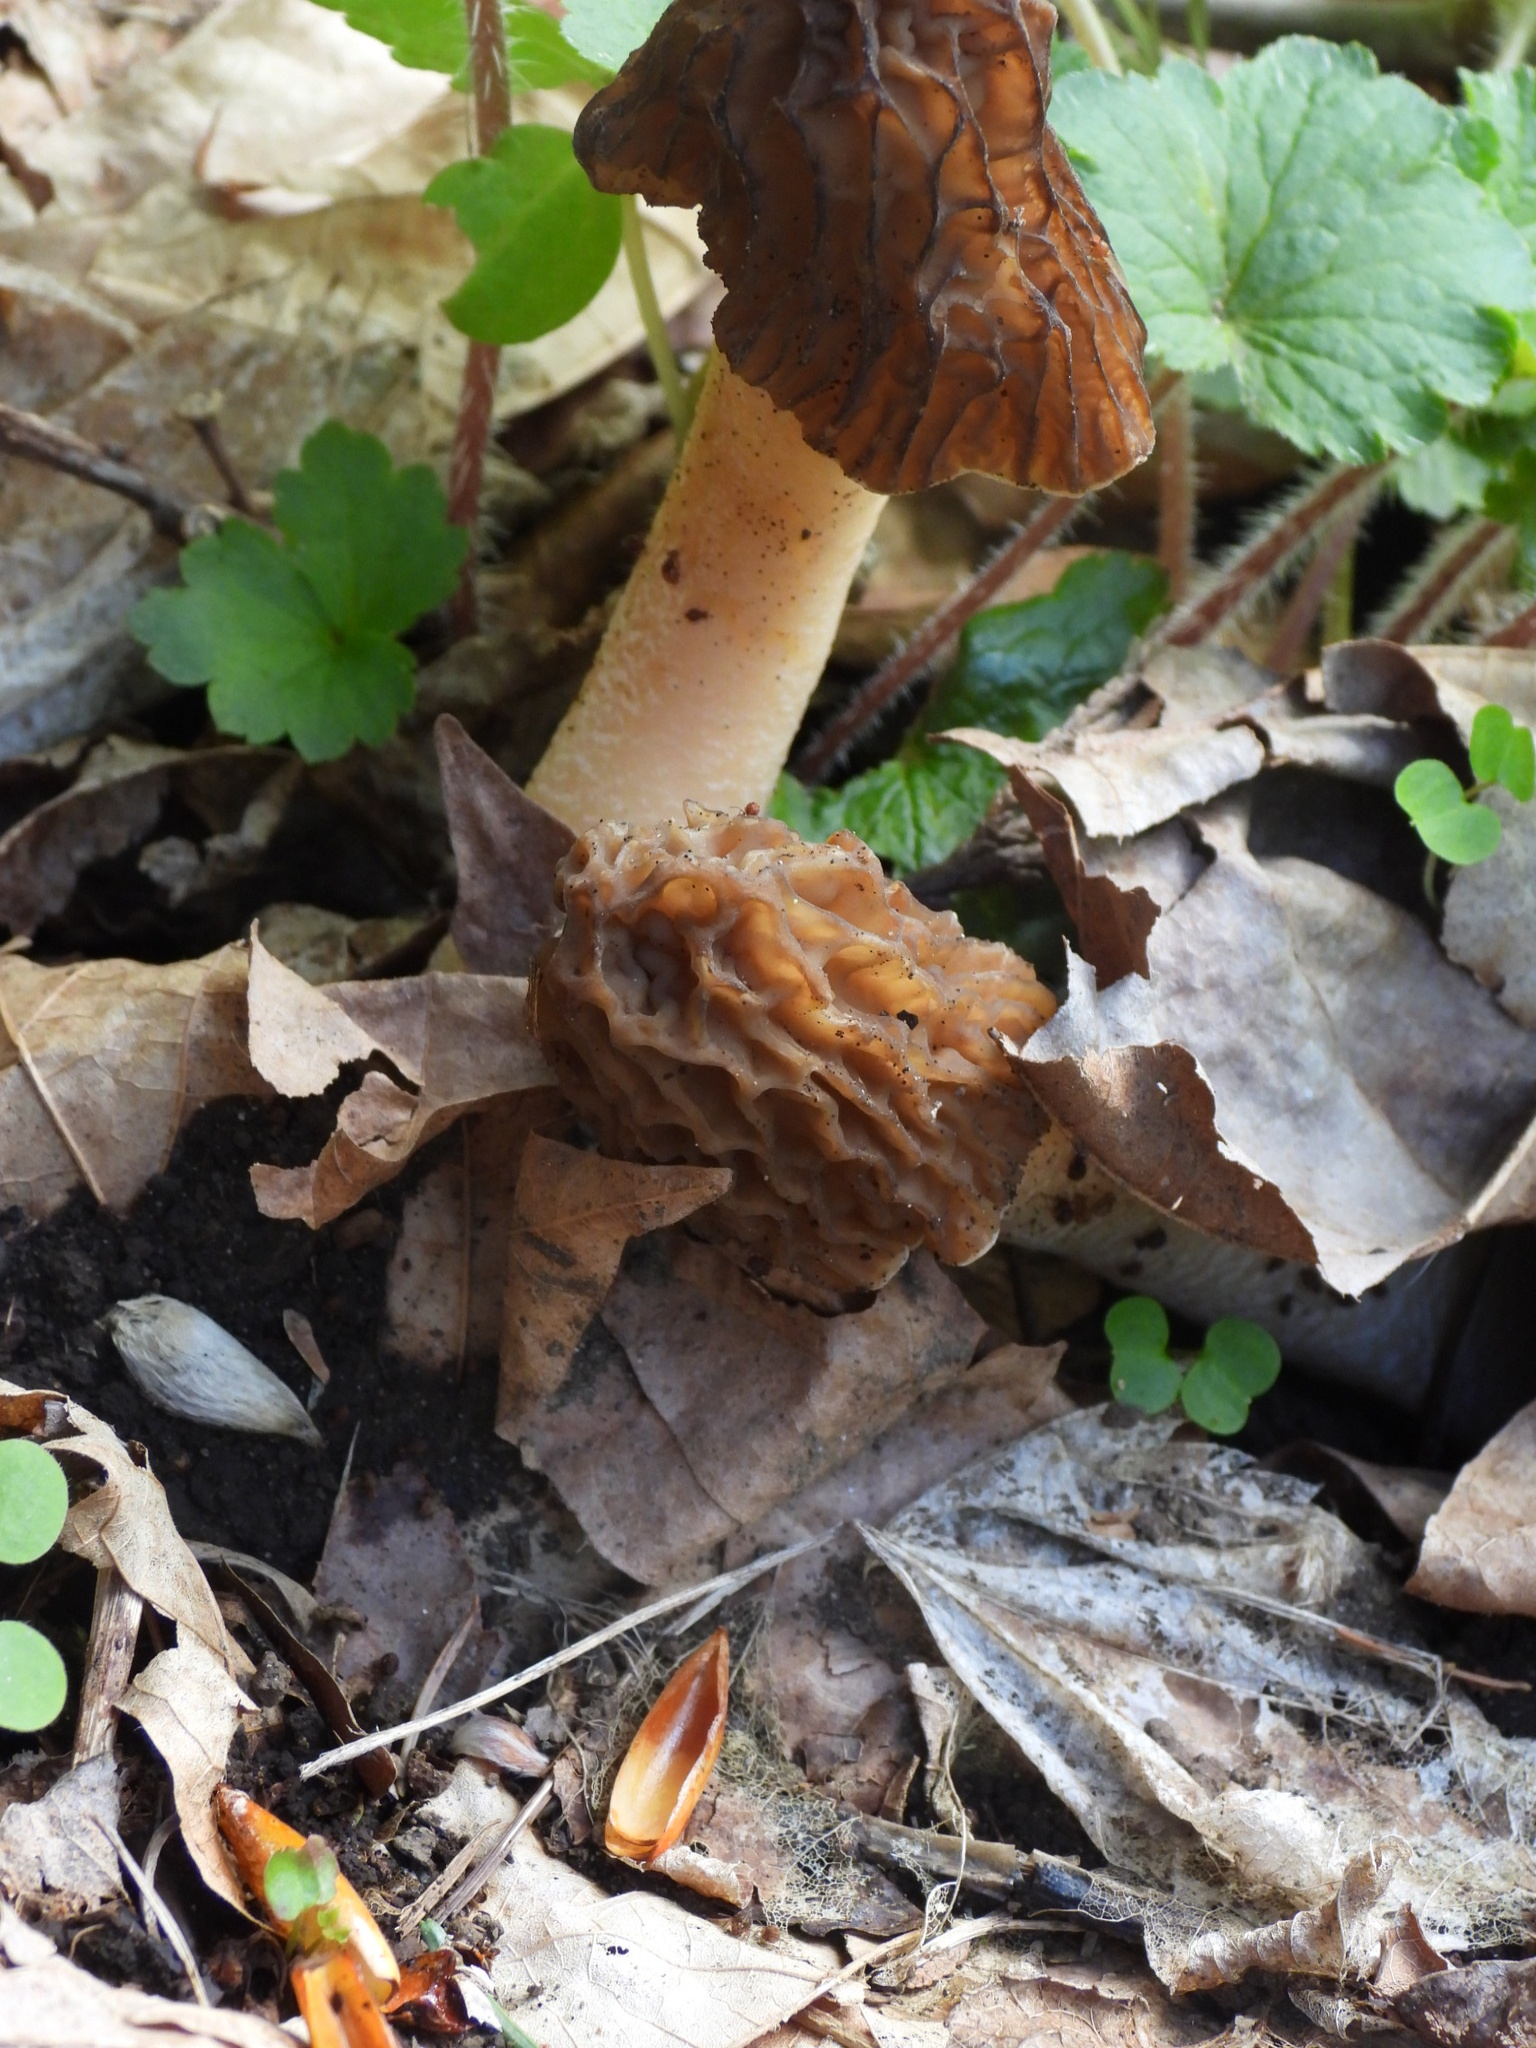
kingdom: Fungi
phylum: Ascomycota
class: Pezizomycetes
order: Pezizales
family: Morchellaceae
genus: Verpa
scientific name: Verpa bohemica
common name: Wrinkled thimble morel
